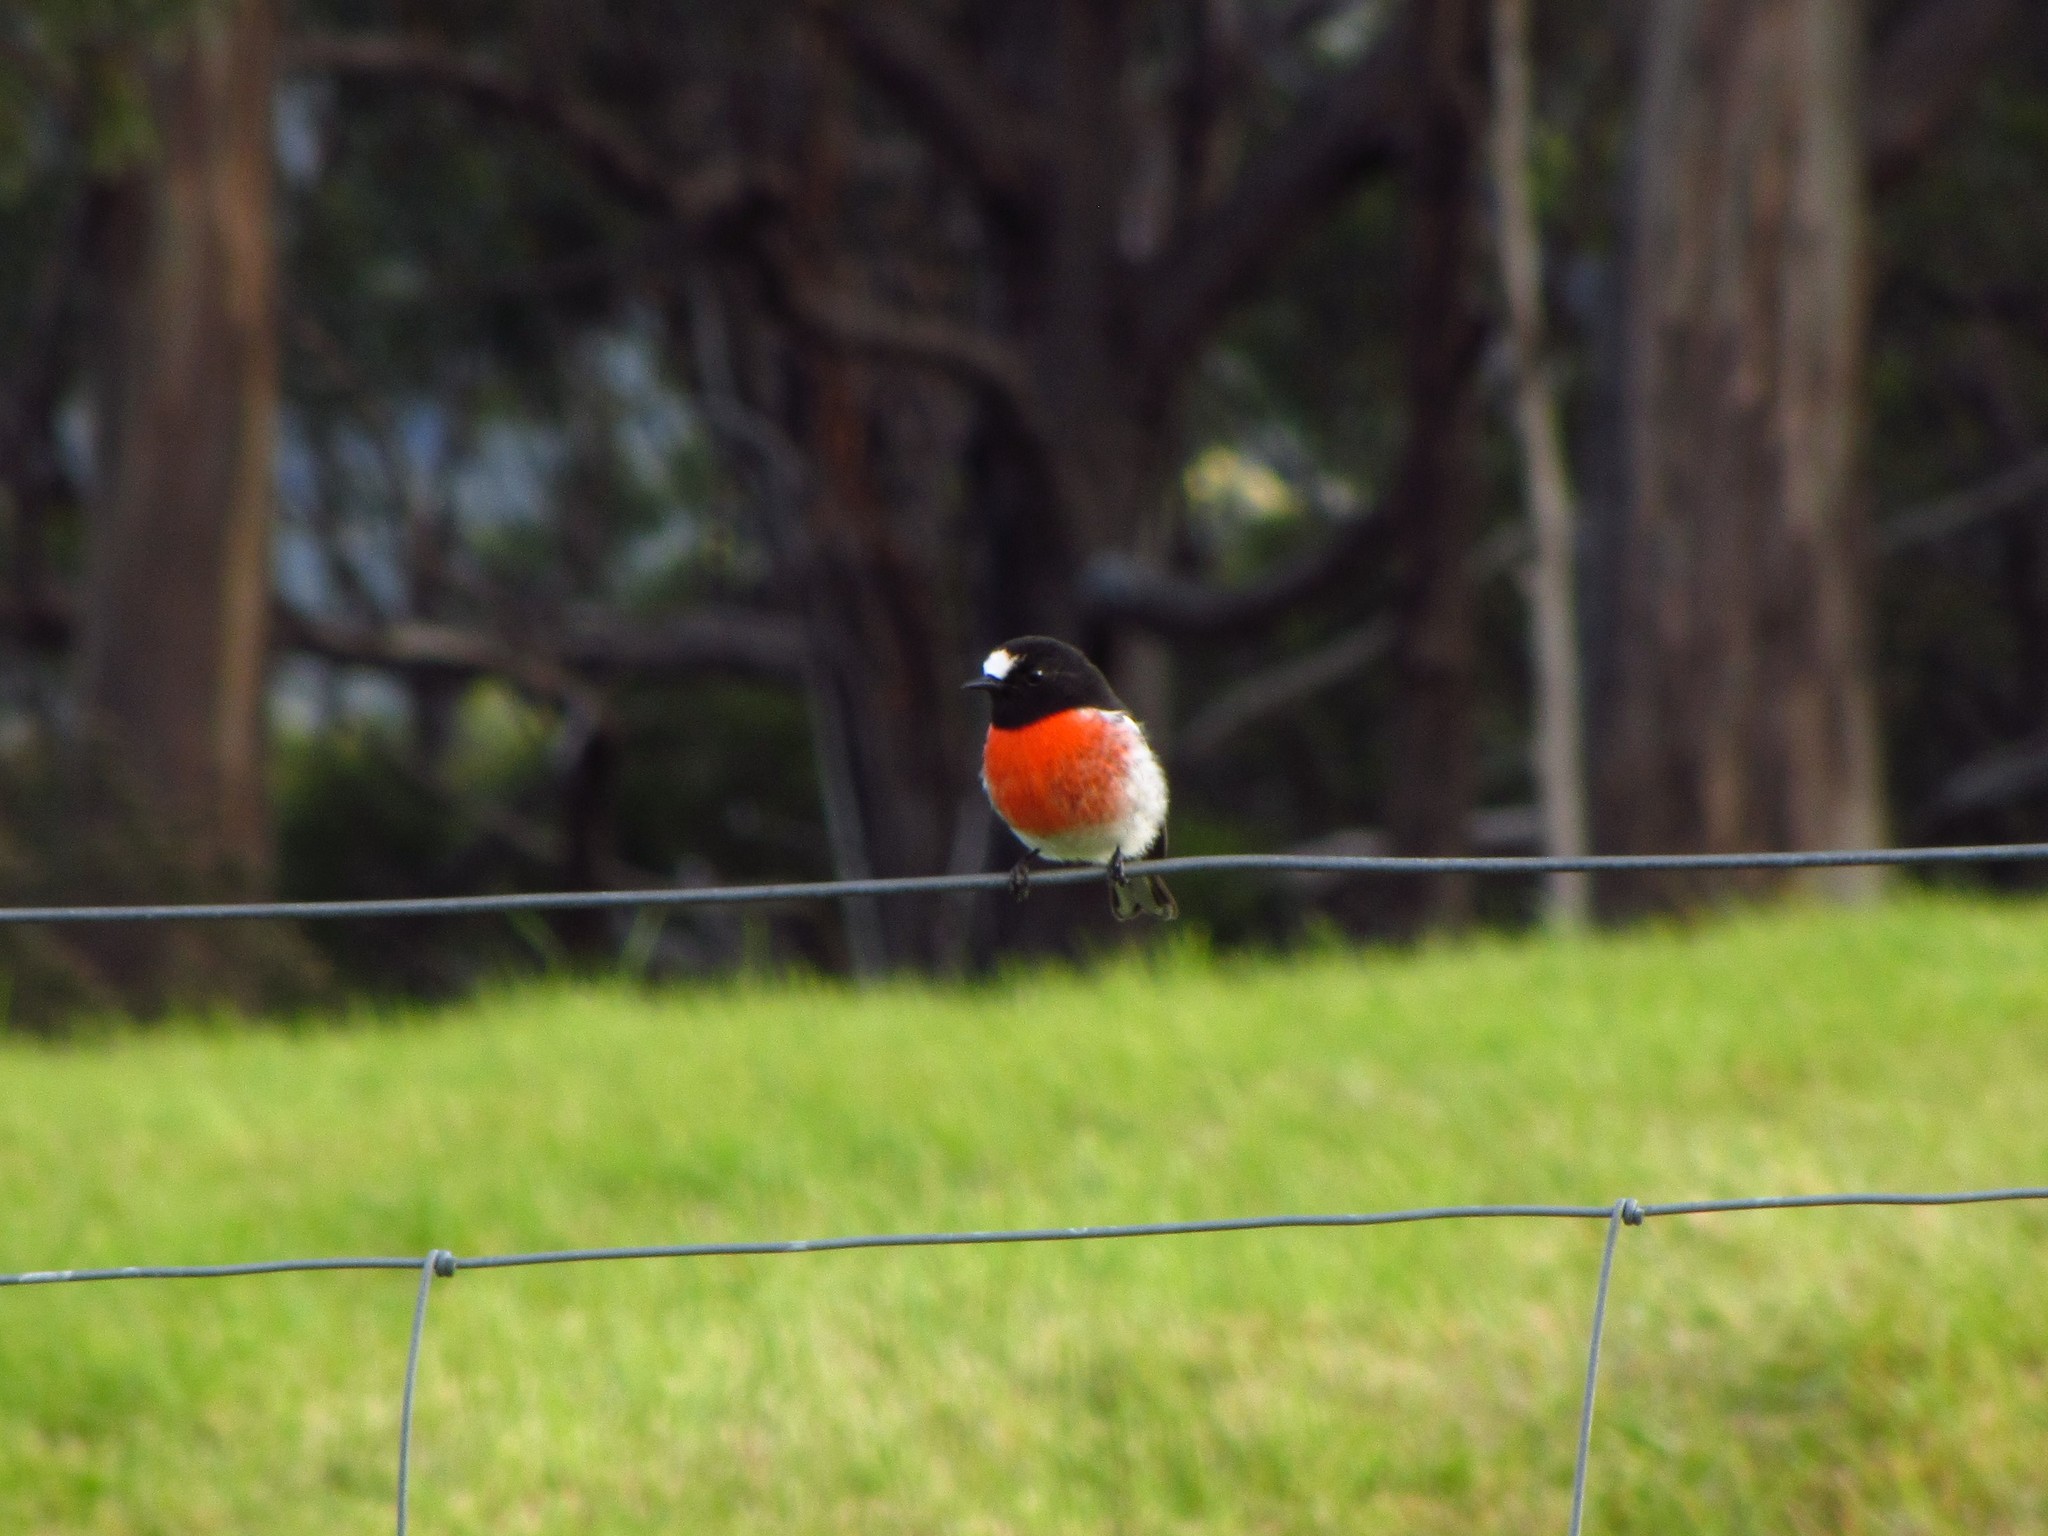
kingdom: Animalia
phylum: Chordata
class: Aves
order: Passeriformes
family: Petroicidae
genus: Petroica
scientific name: Petroica boodang
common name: Scarlet robin
